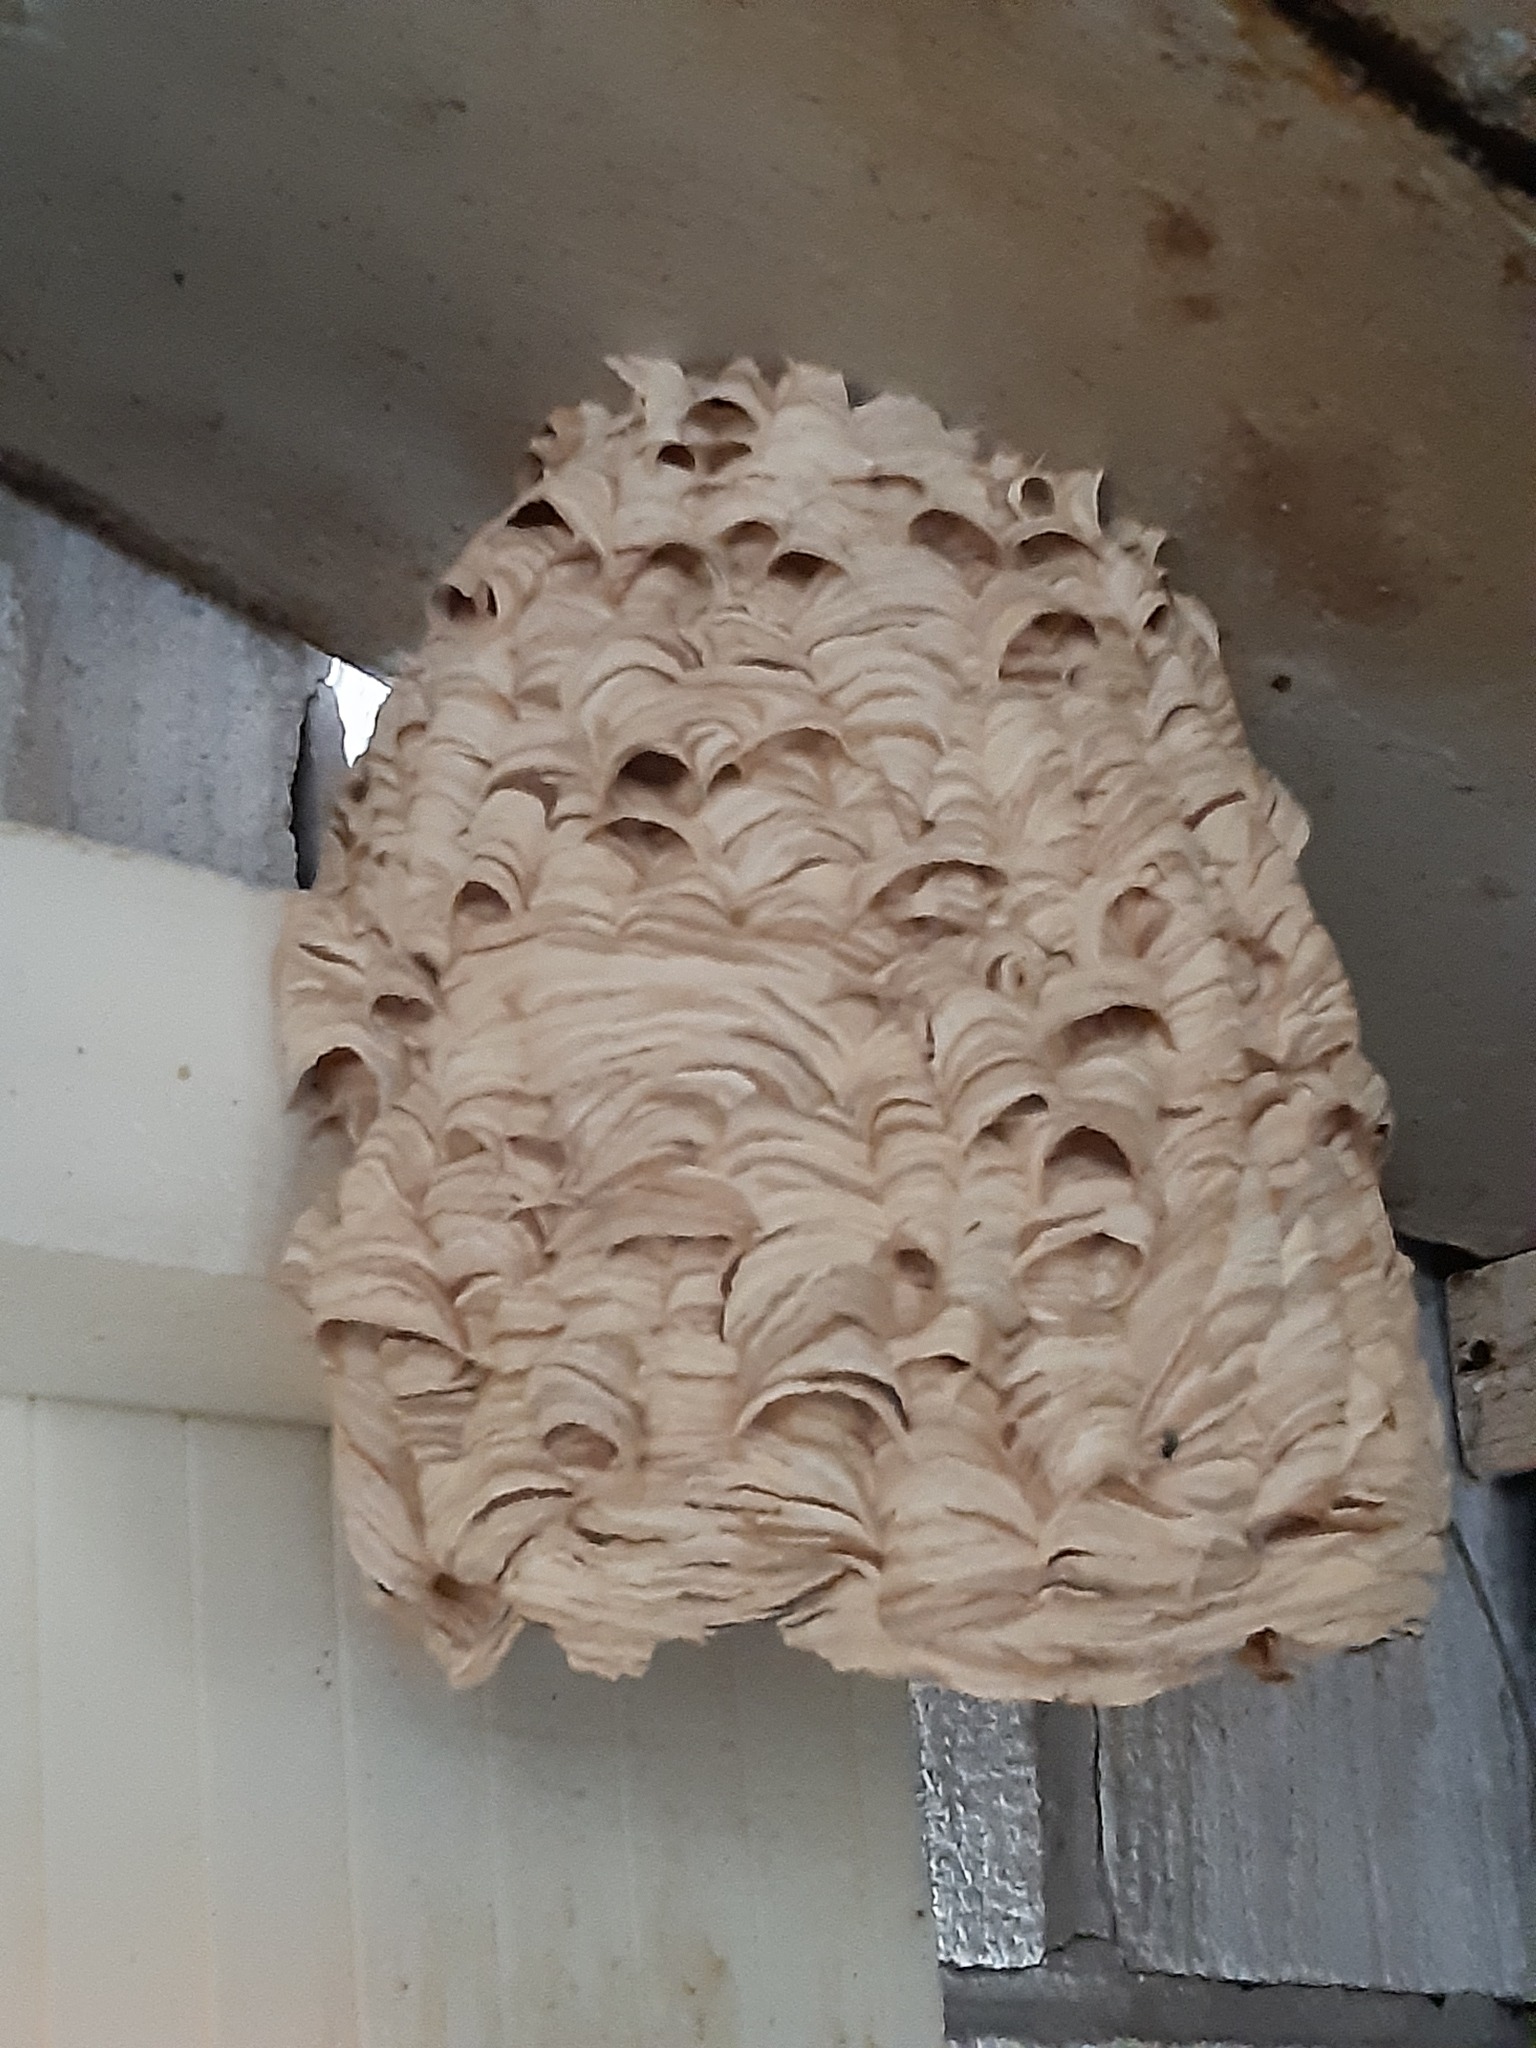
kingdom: Animalia
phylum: Arthropoda
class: Insecta
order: Hymenoptera
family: Vespidae
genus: Vespa
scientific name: Vespa crabro
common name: Hornet
